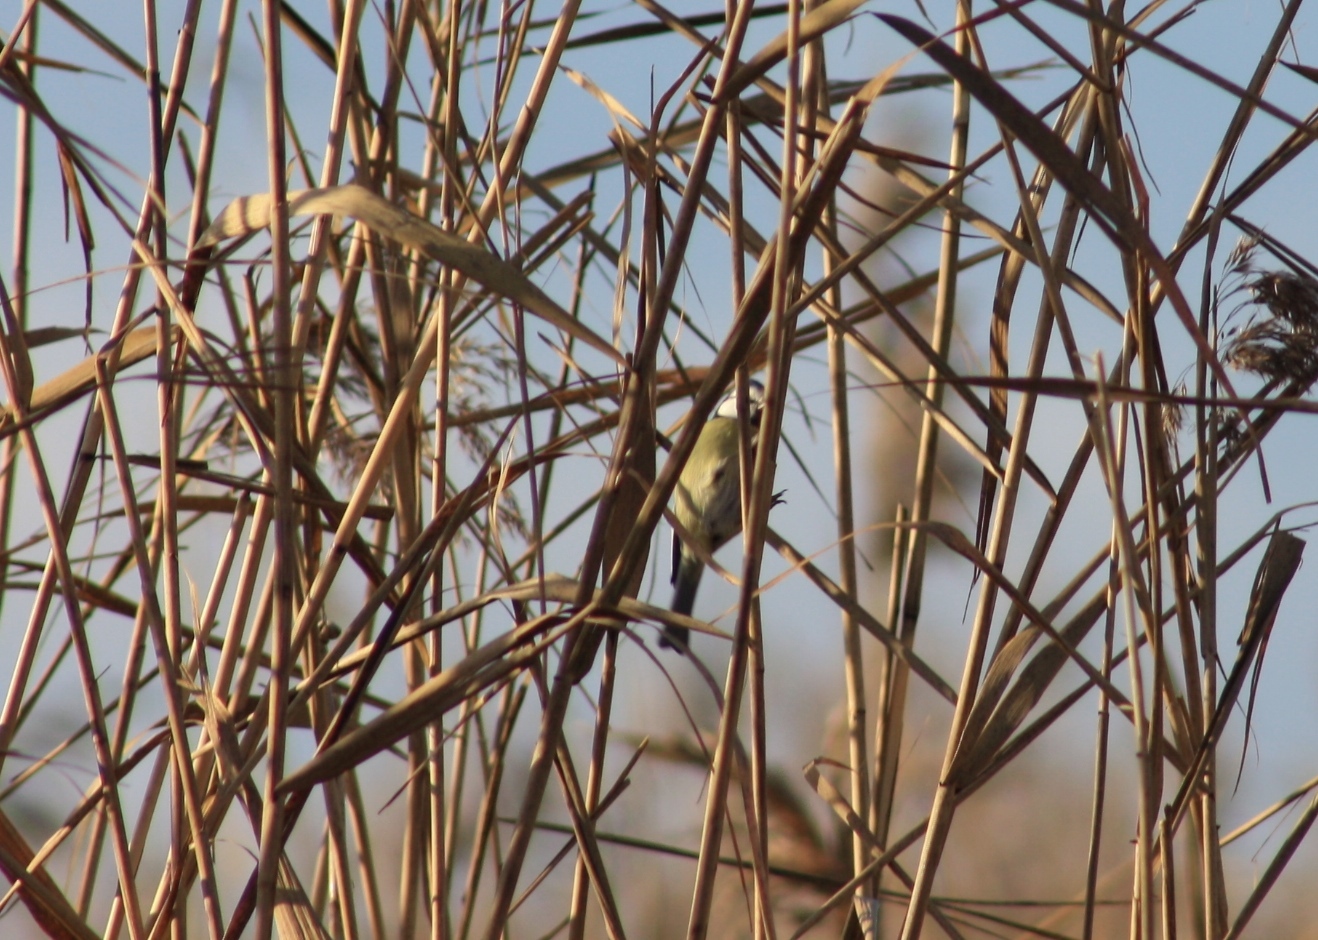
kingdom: Animalia
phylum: Chordata
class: Aves
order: Passeriformes
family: Paridae
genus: Cyanistes
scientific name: Cyanistes caeruleus
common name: Eurasian blue tit
